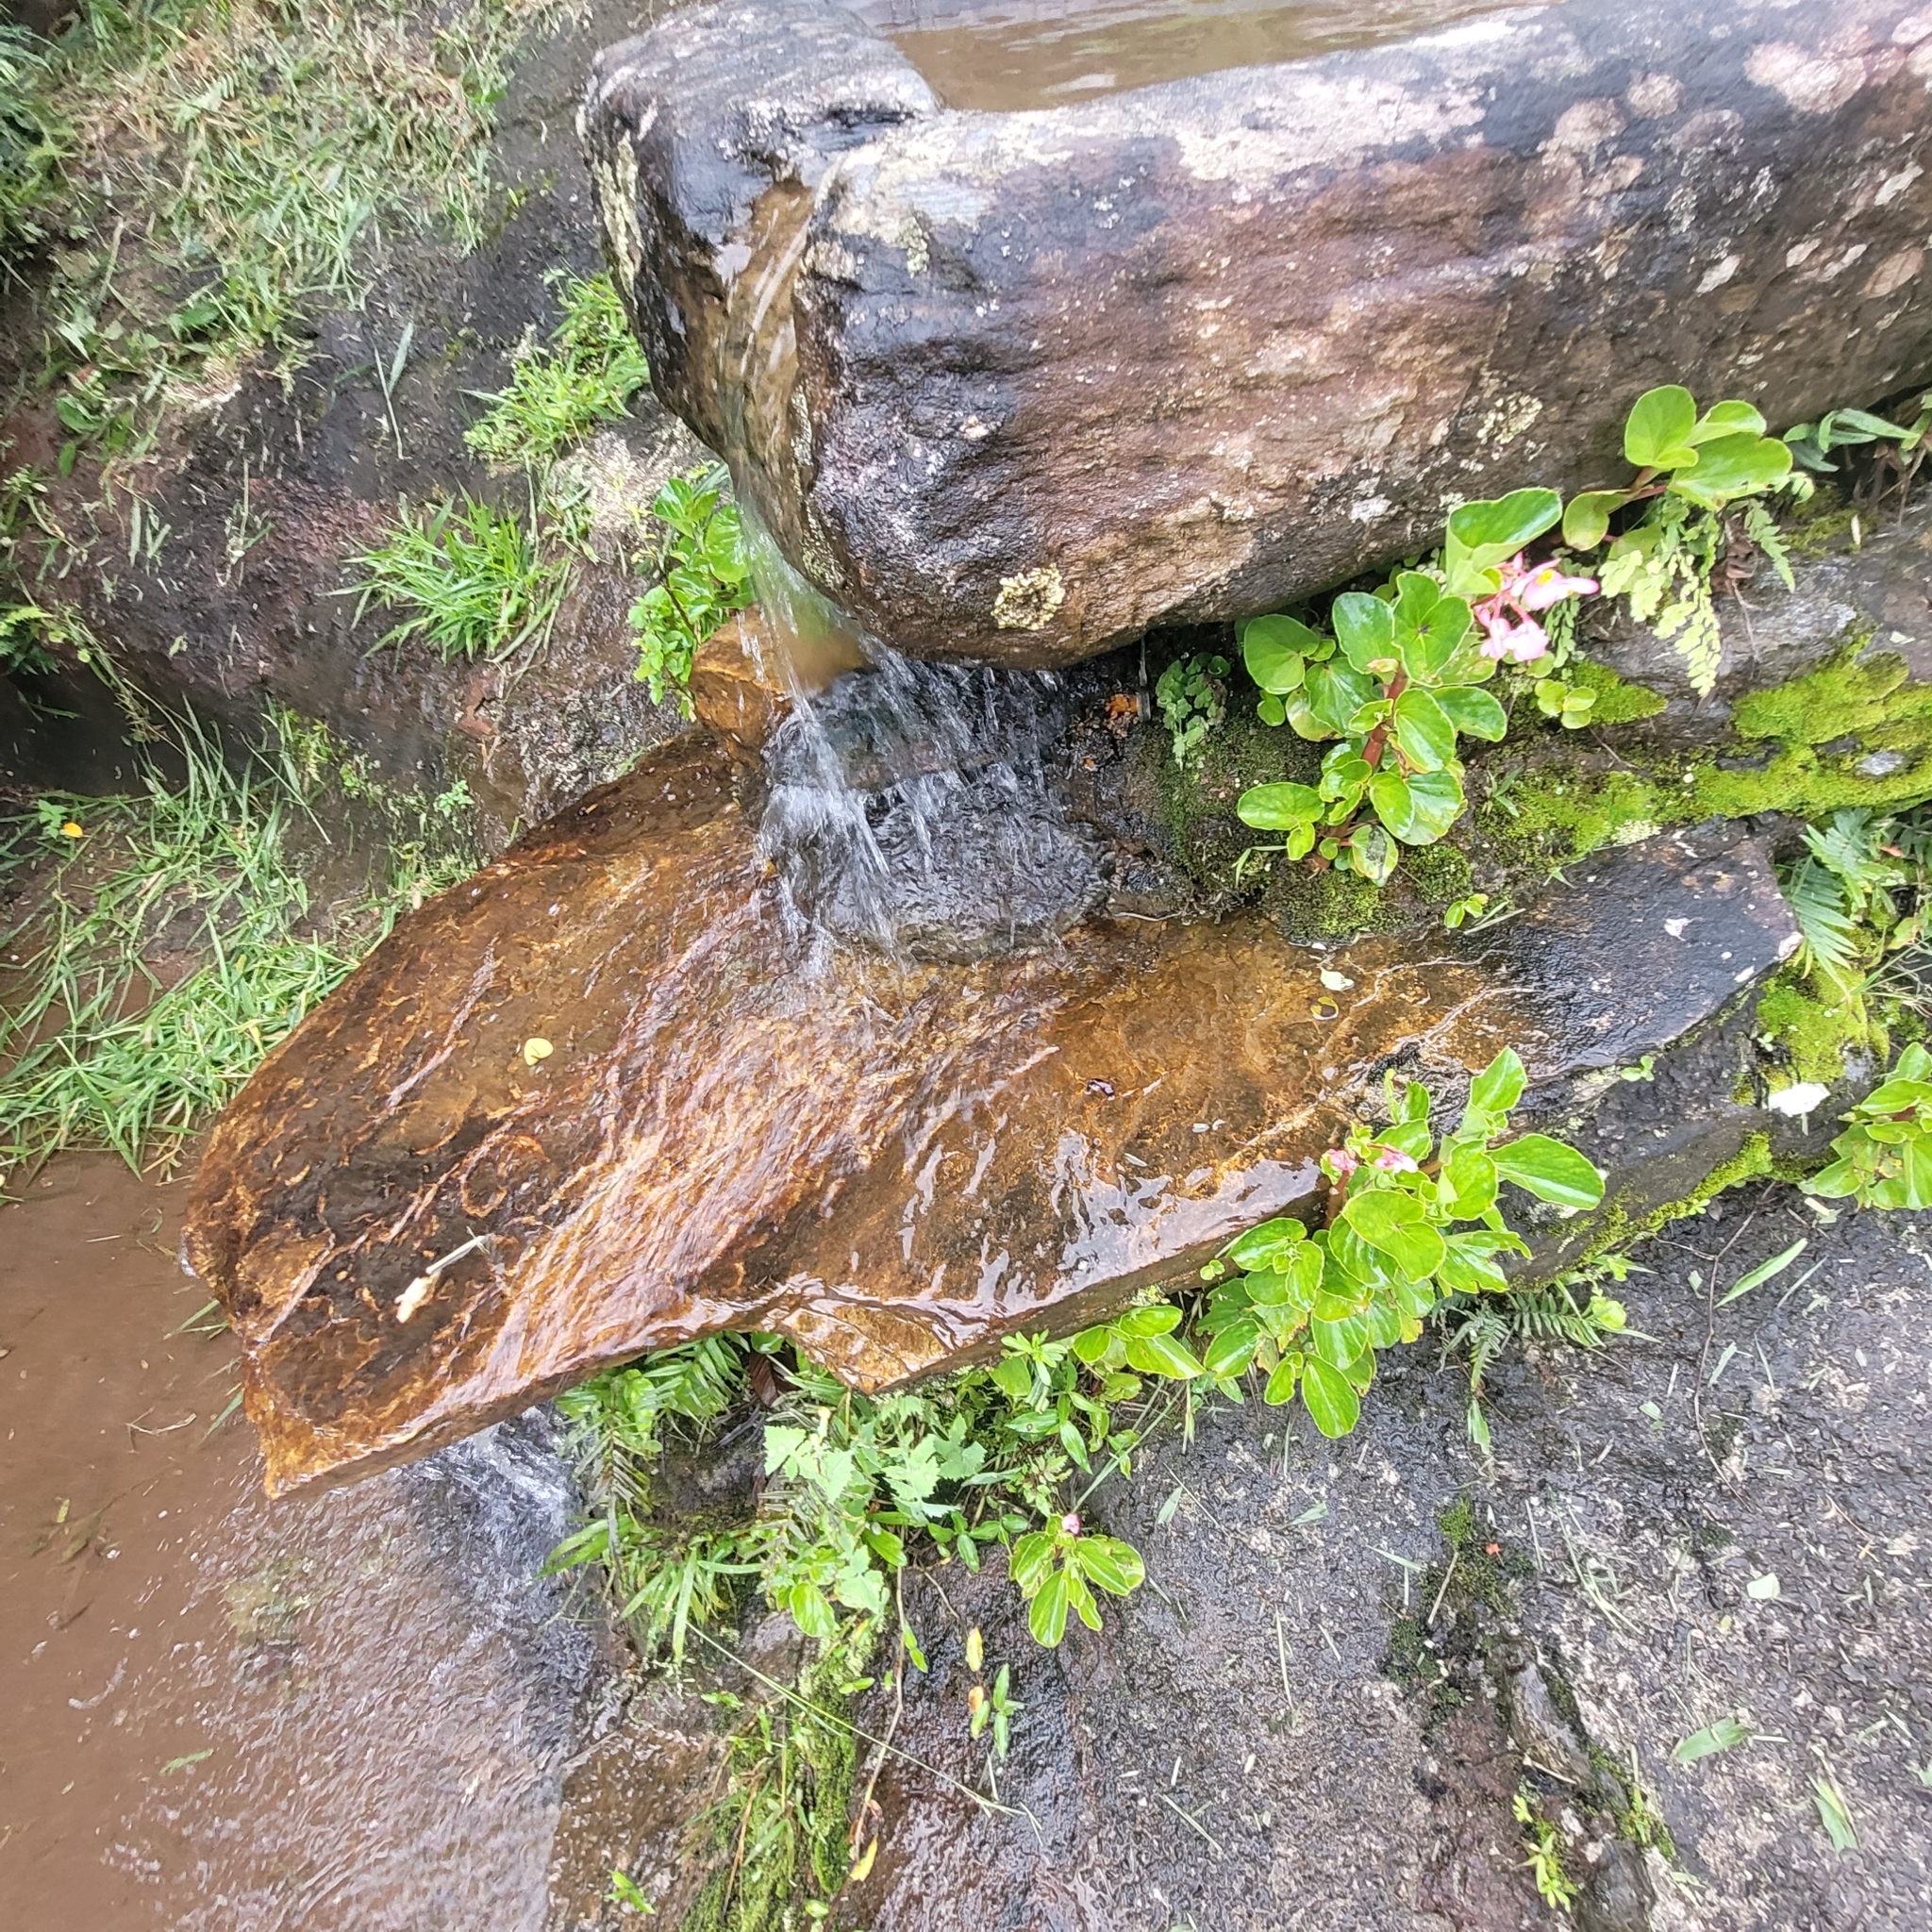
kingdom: Plantae
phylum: Tracheophyta
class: Magnoliopsida
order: Cucurbitales
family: Begoniaceae
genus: Begonia
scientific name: Begonia cucullata
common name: Clubbed begonia
